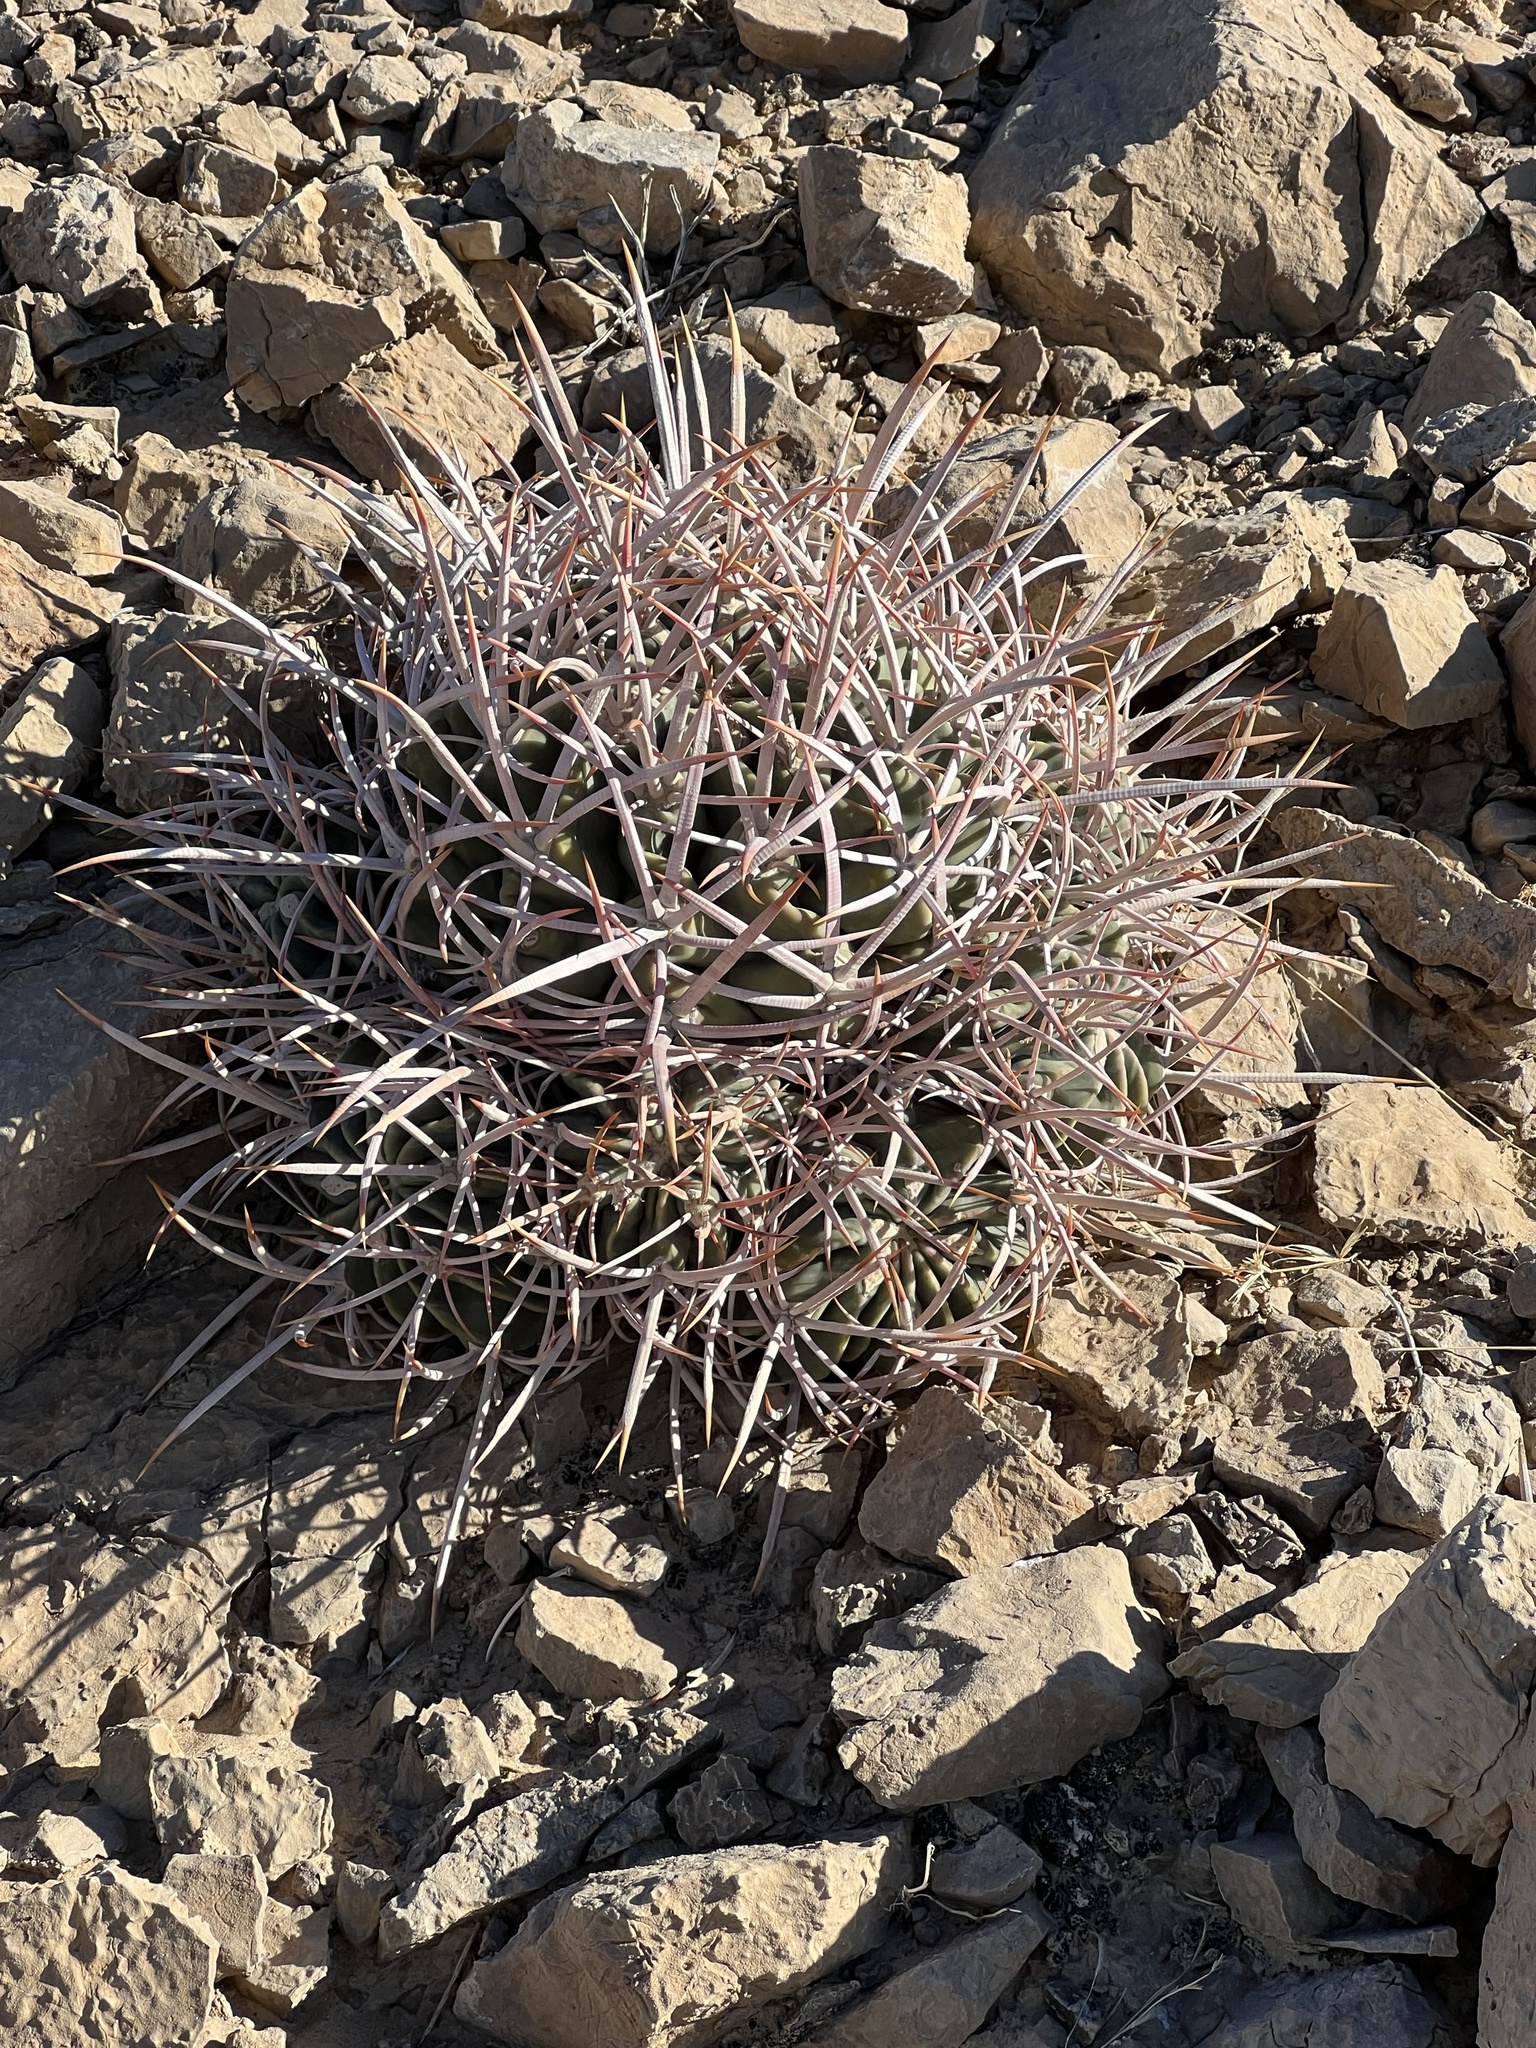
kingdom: Plantae
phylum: Tracheophyta
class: Magnoliopsida
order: Caryophyllales
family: Cactaceae
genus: Echinocactus
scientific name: Echinocactus polycephalus
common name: Cottontop cactus
